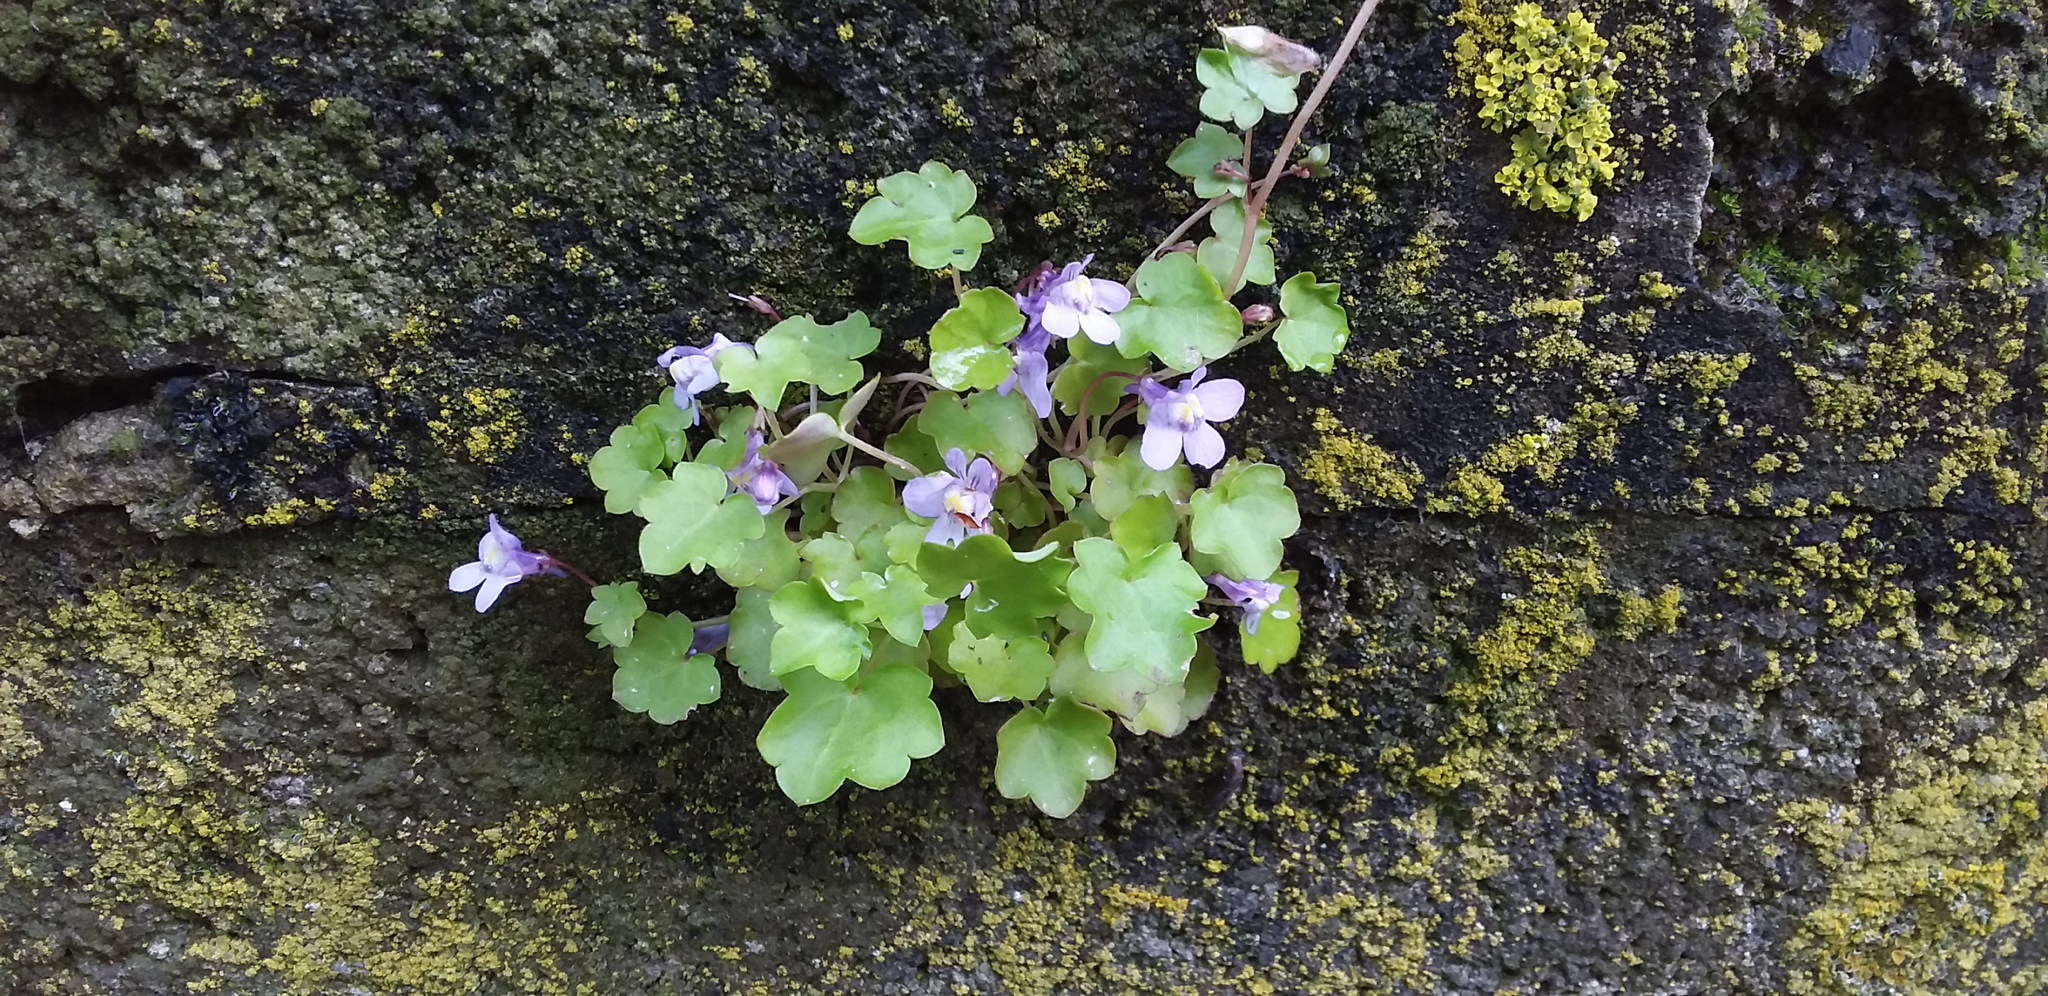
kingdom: Plantae
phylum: Tracheophyta
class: Magnoliopsida
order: Lamiales
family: Plantaginaceae
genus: Cymbalaria
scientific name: Cymbalaria muralis
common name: Ivy-leaved toadflax
